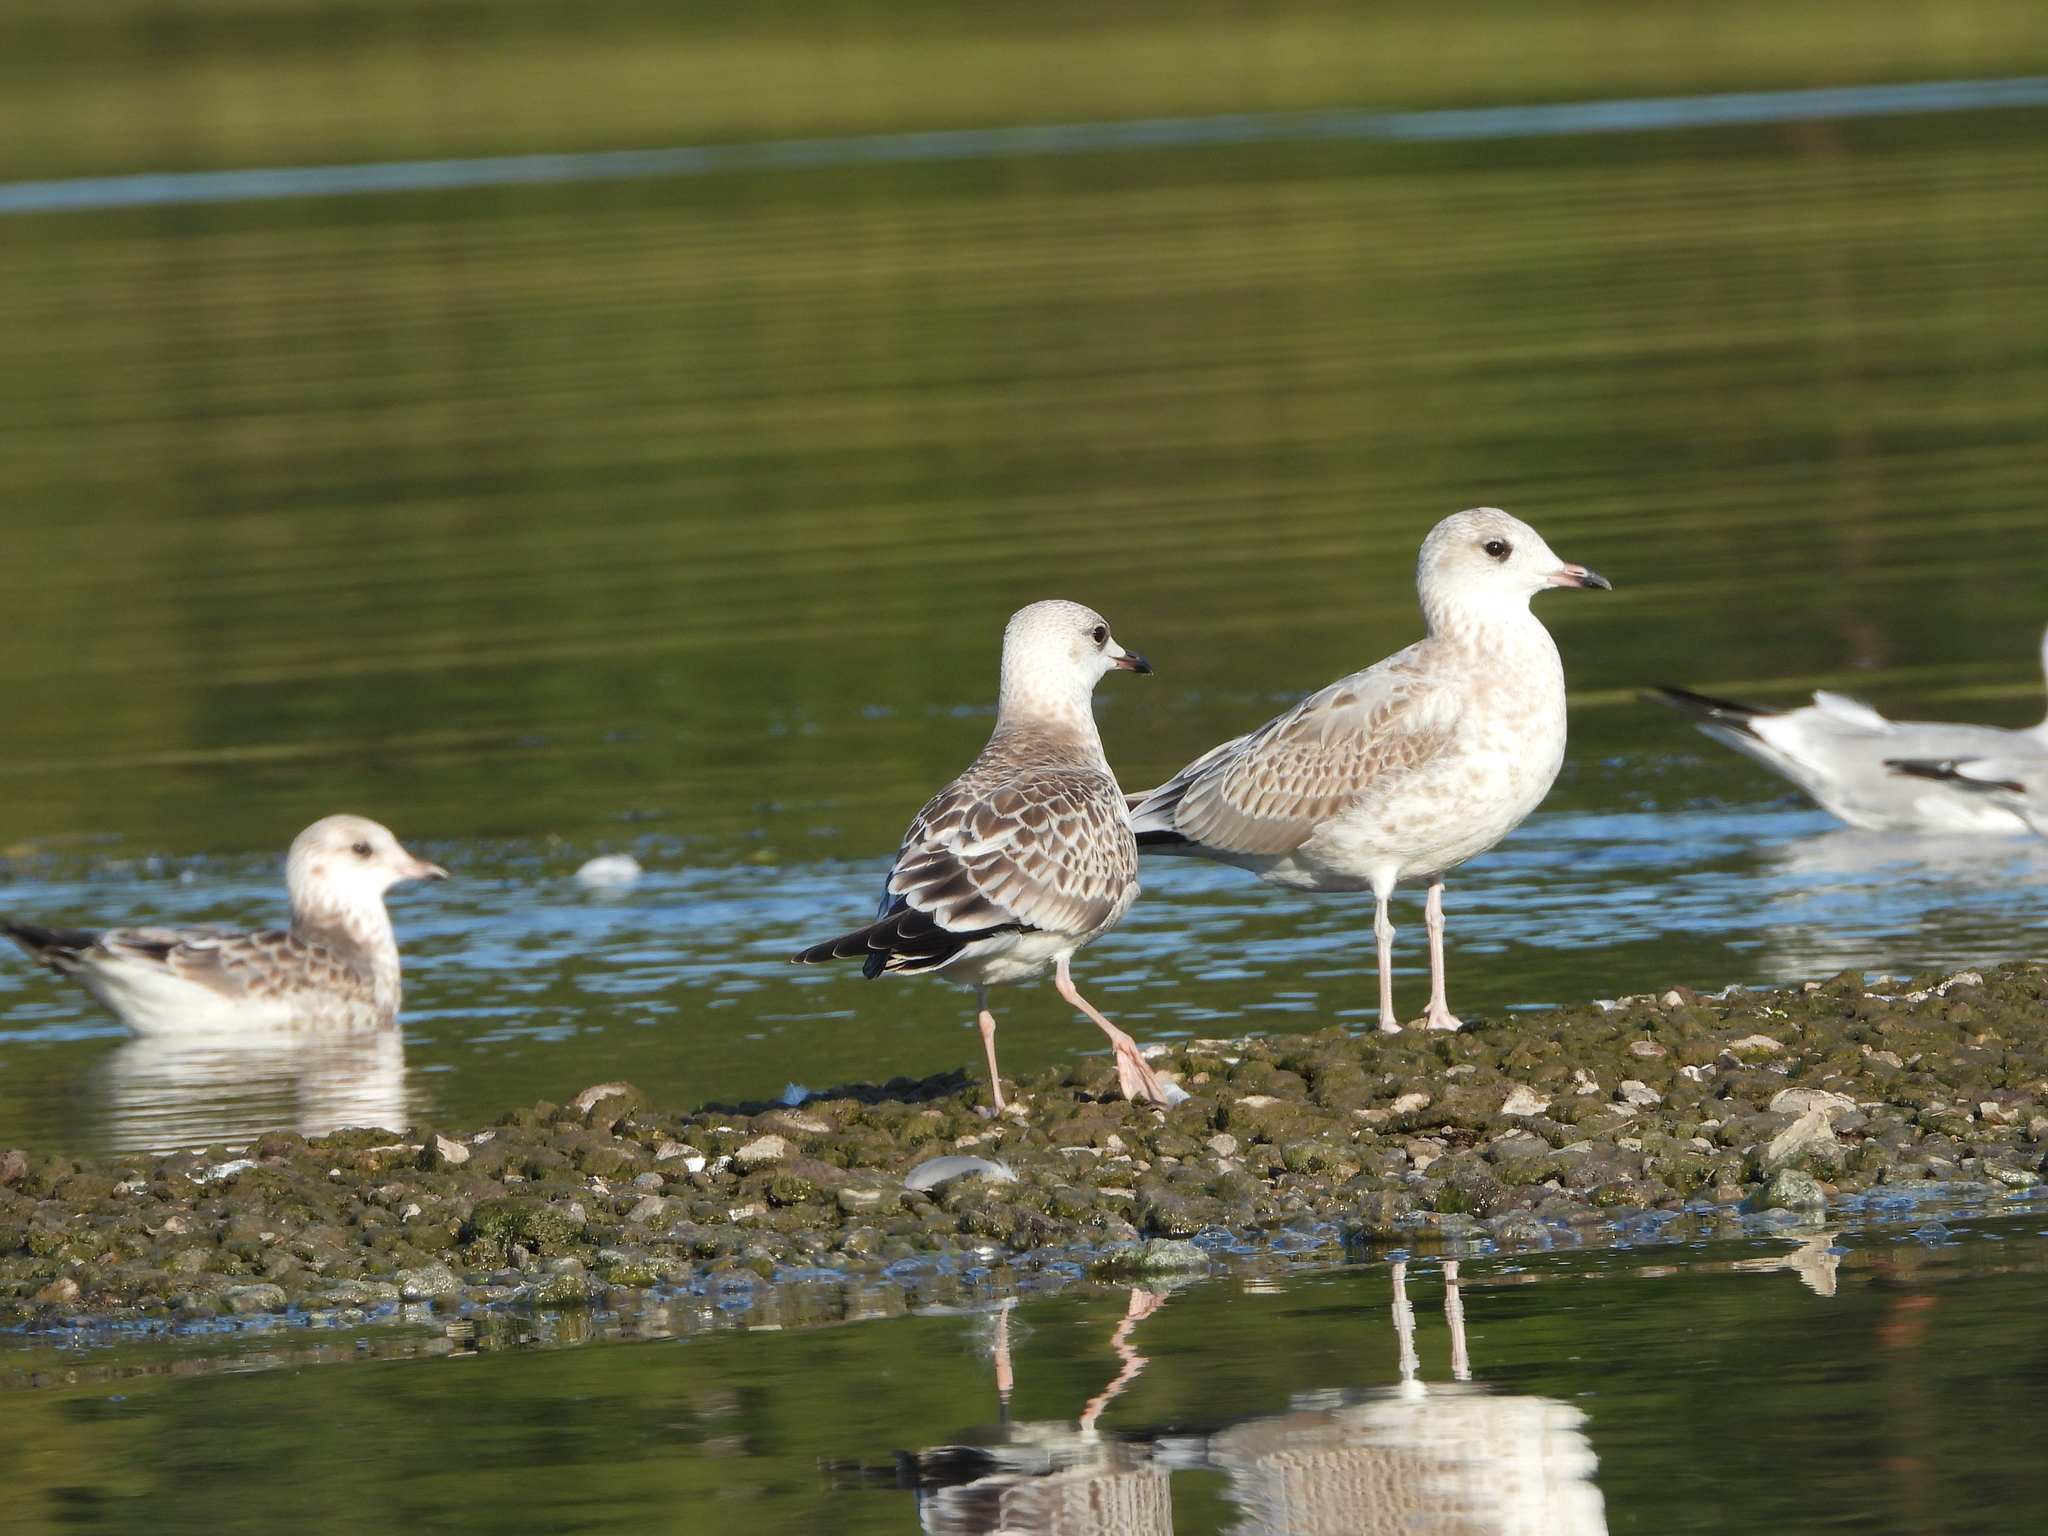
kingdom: Animalia
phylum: Chordata
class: Aves
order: Charadriiformes
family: Laridae
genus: Larus
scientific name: Larus canus
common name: Mew gull
